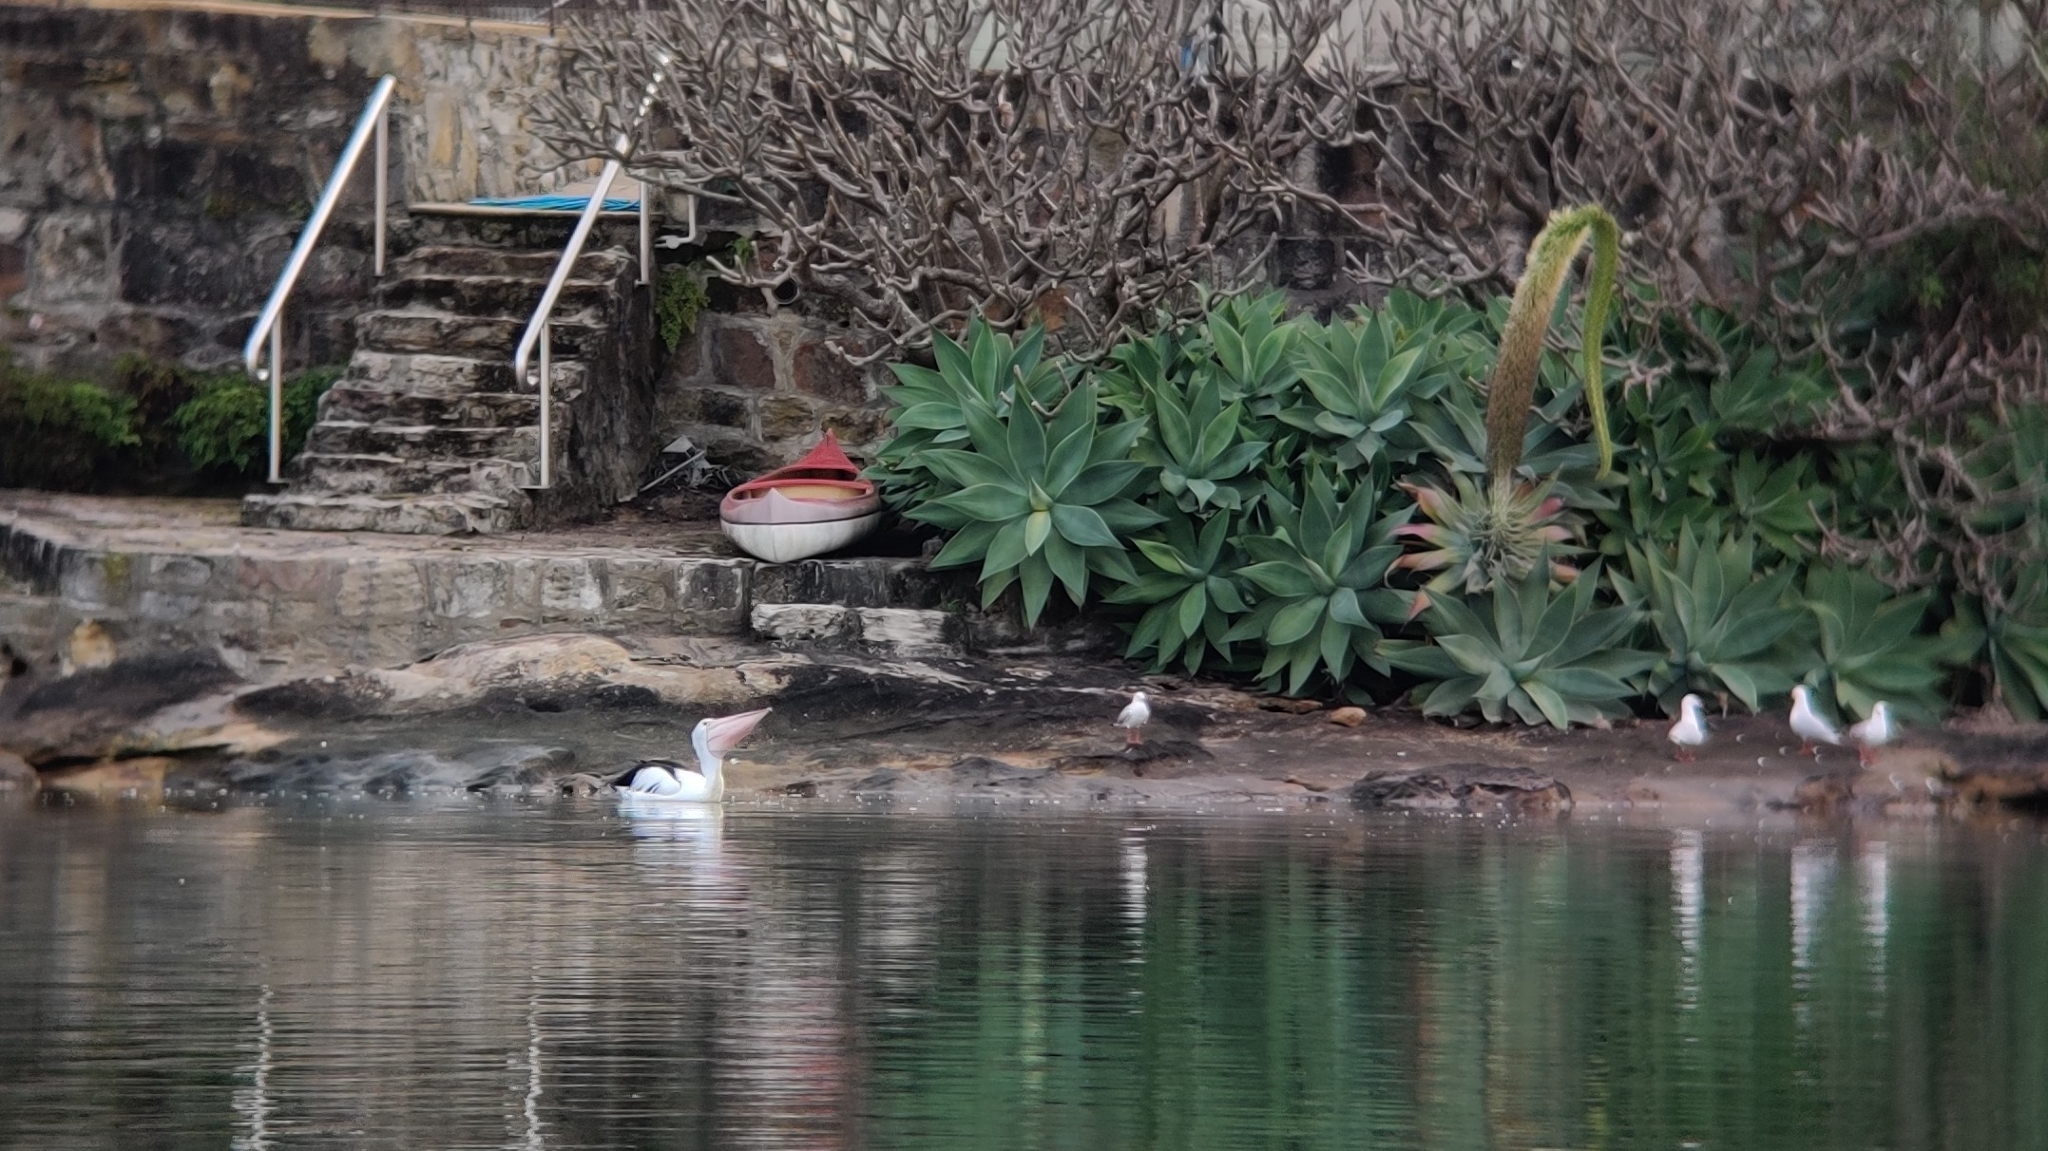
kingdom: Animalia
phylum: Chordata
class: Aves
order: Pelecaniformes
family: Pelecanidae
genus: Pelecanus
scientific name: Pelecanus conspicillatus
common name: Australian pelican
